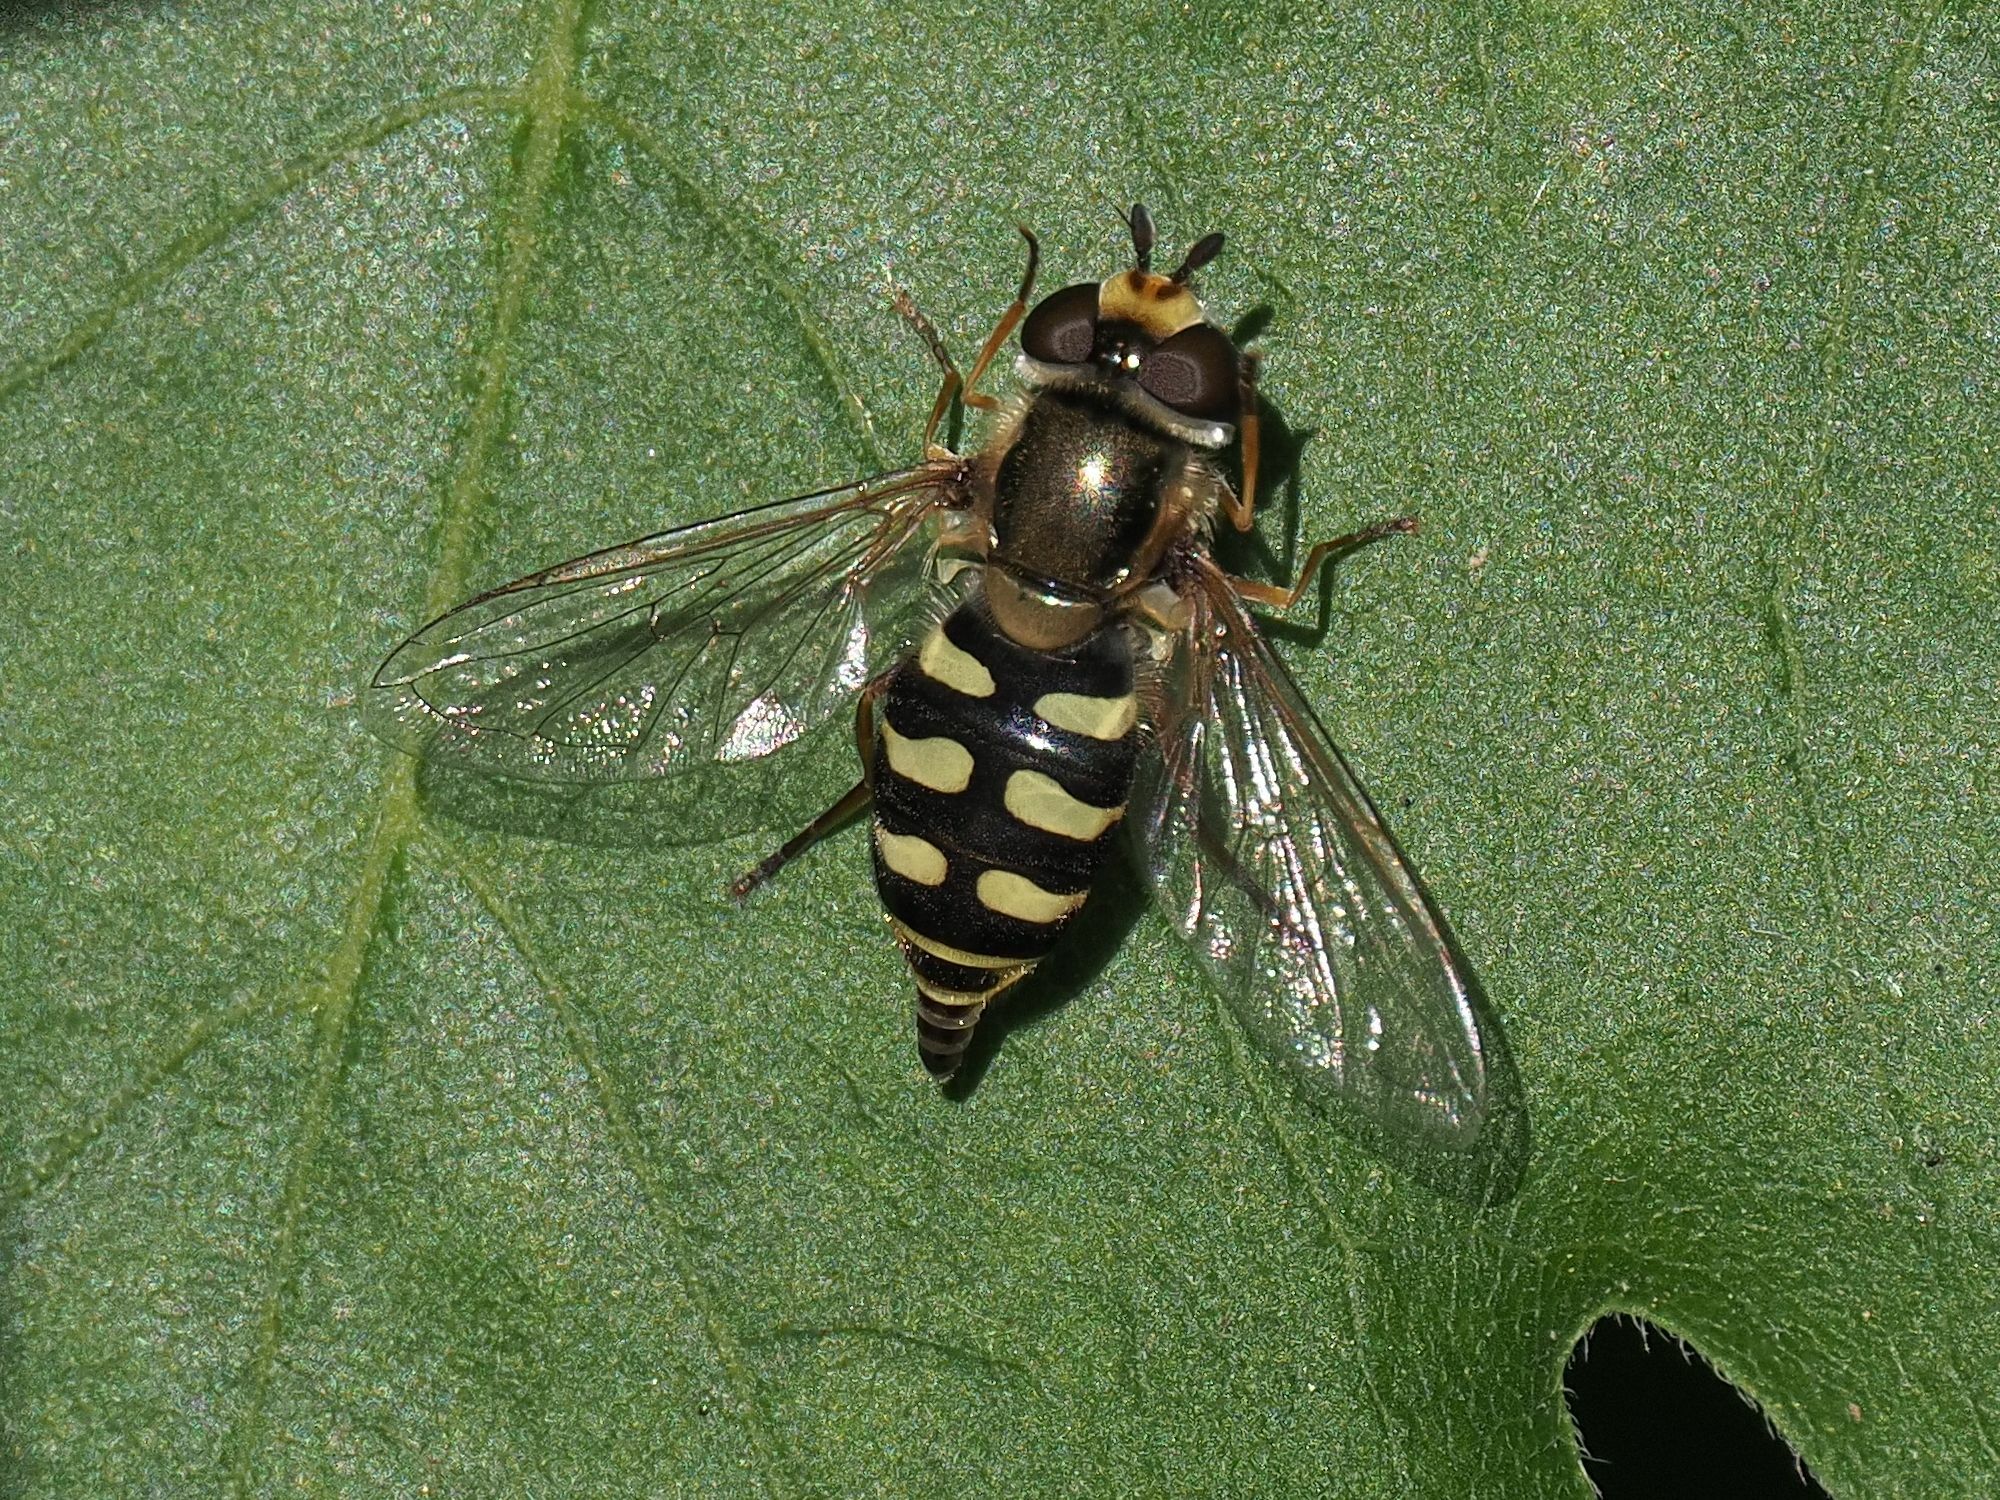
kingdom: Animalia
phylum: Arthropoda
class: Insecta
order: Diptera
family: Syrphidae
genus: Eupeodes
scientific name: Eupeodes corollae
